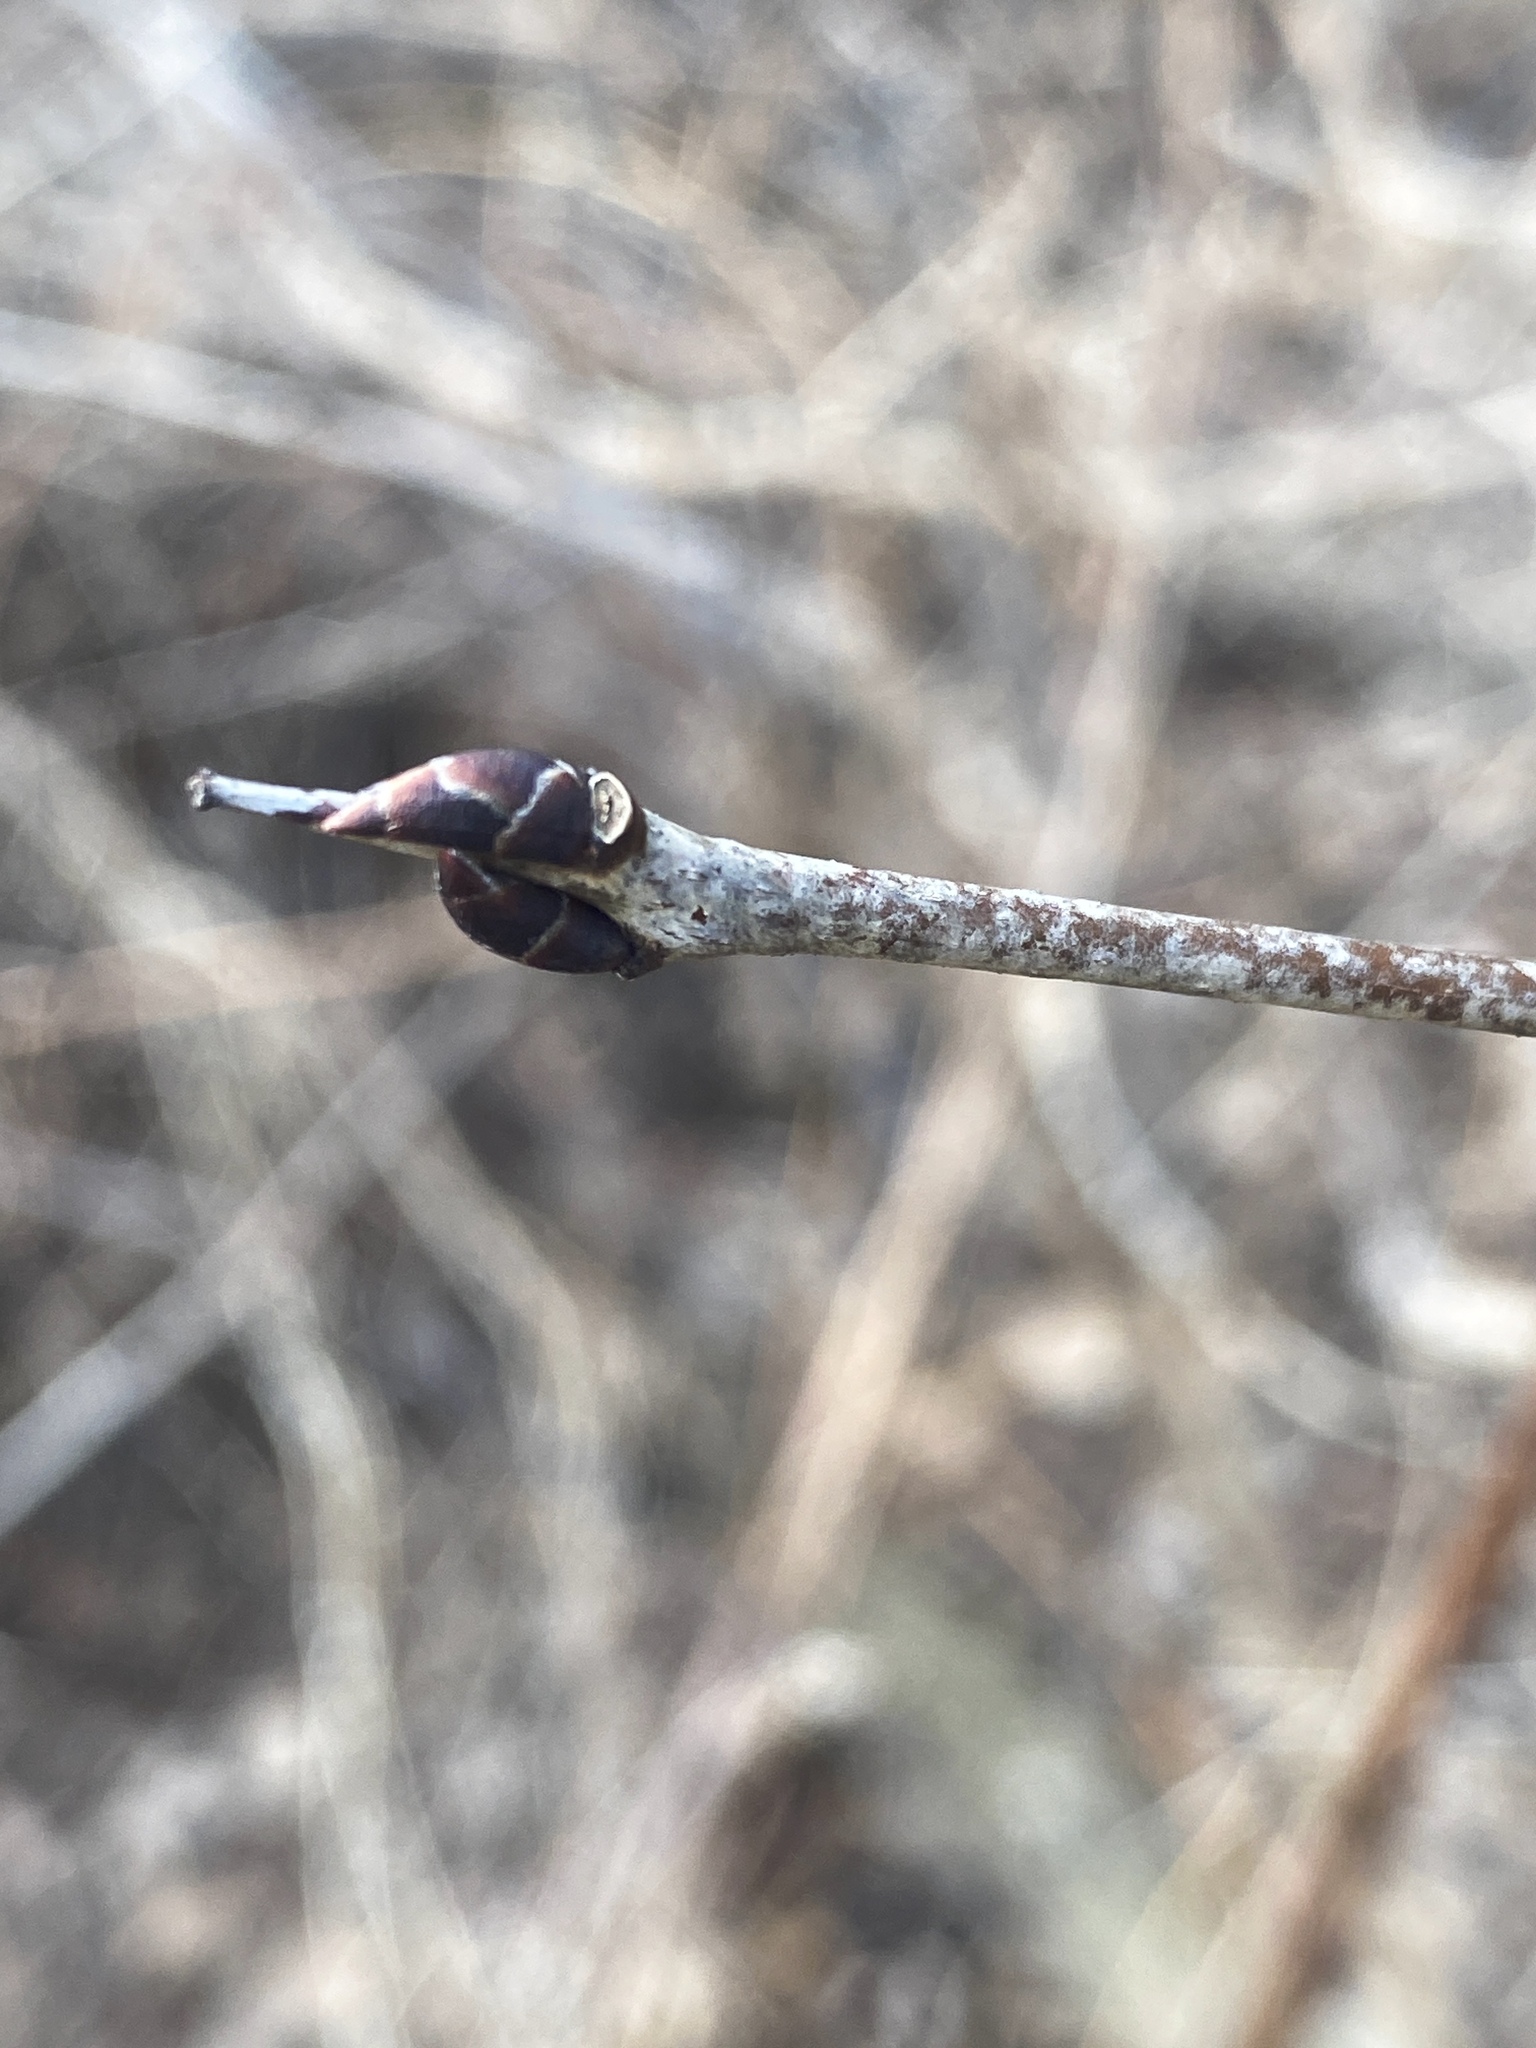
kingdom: Plantae
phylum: Tracheophyta
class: Magnoliopsida
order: Rosales
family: Rhamnaceae
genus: Rhamnus
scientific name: Rhamnus cathartica
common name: Common buckthorn
